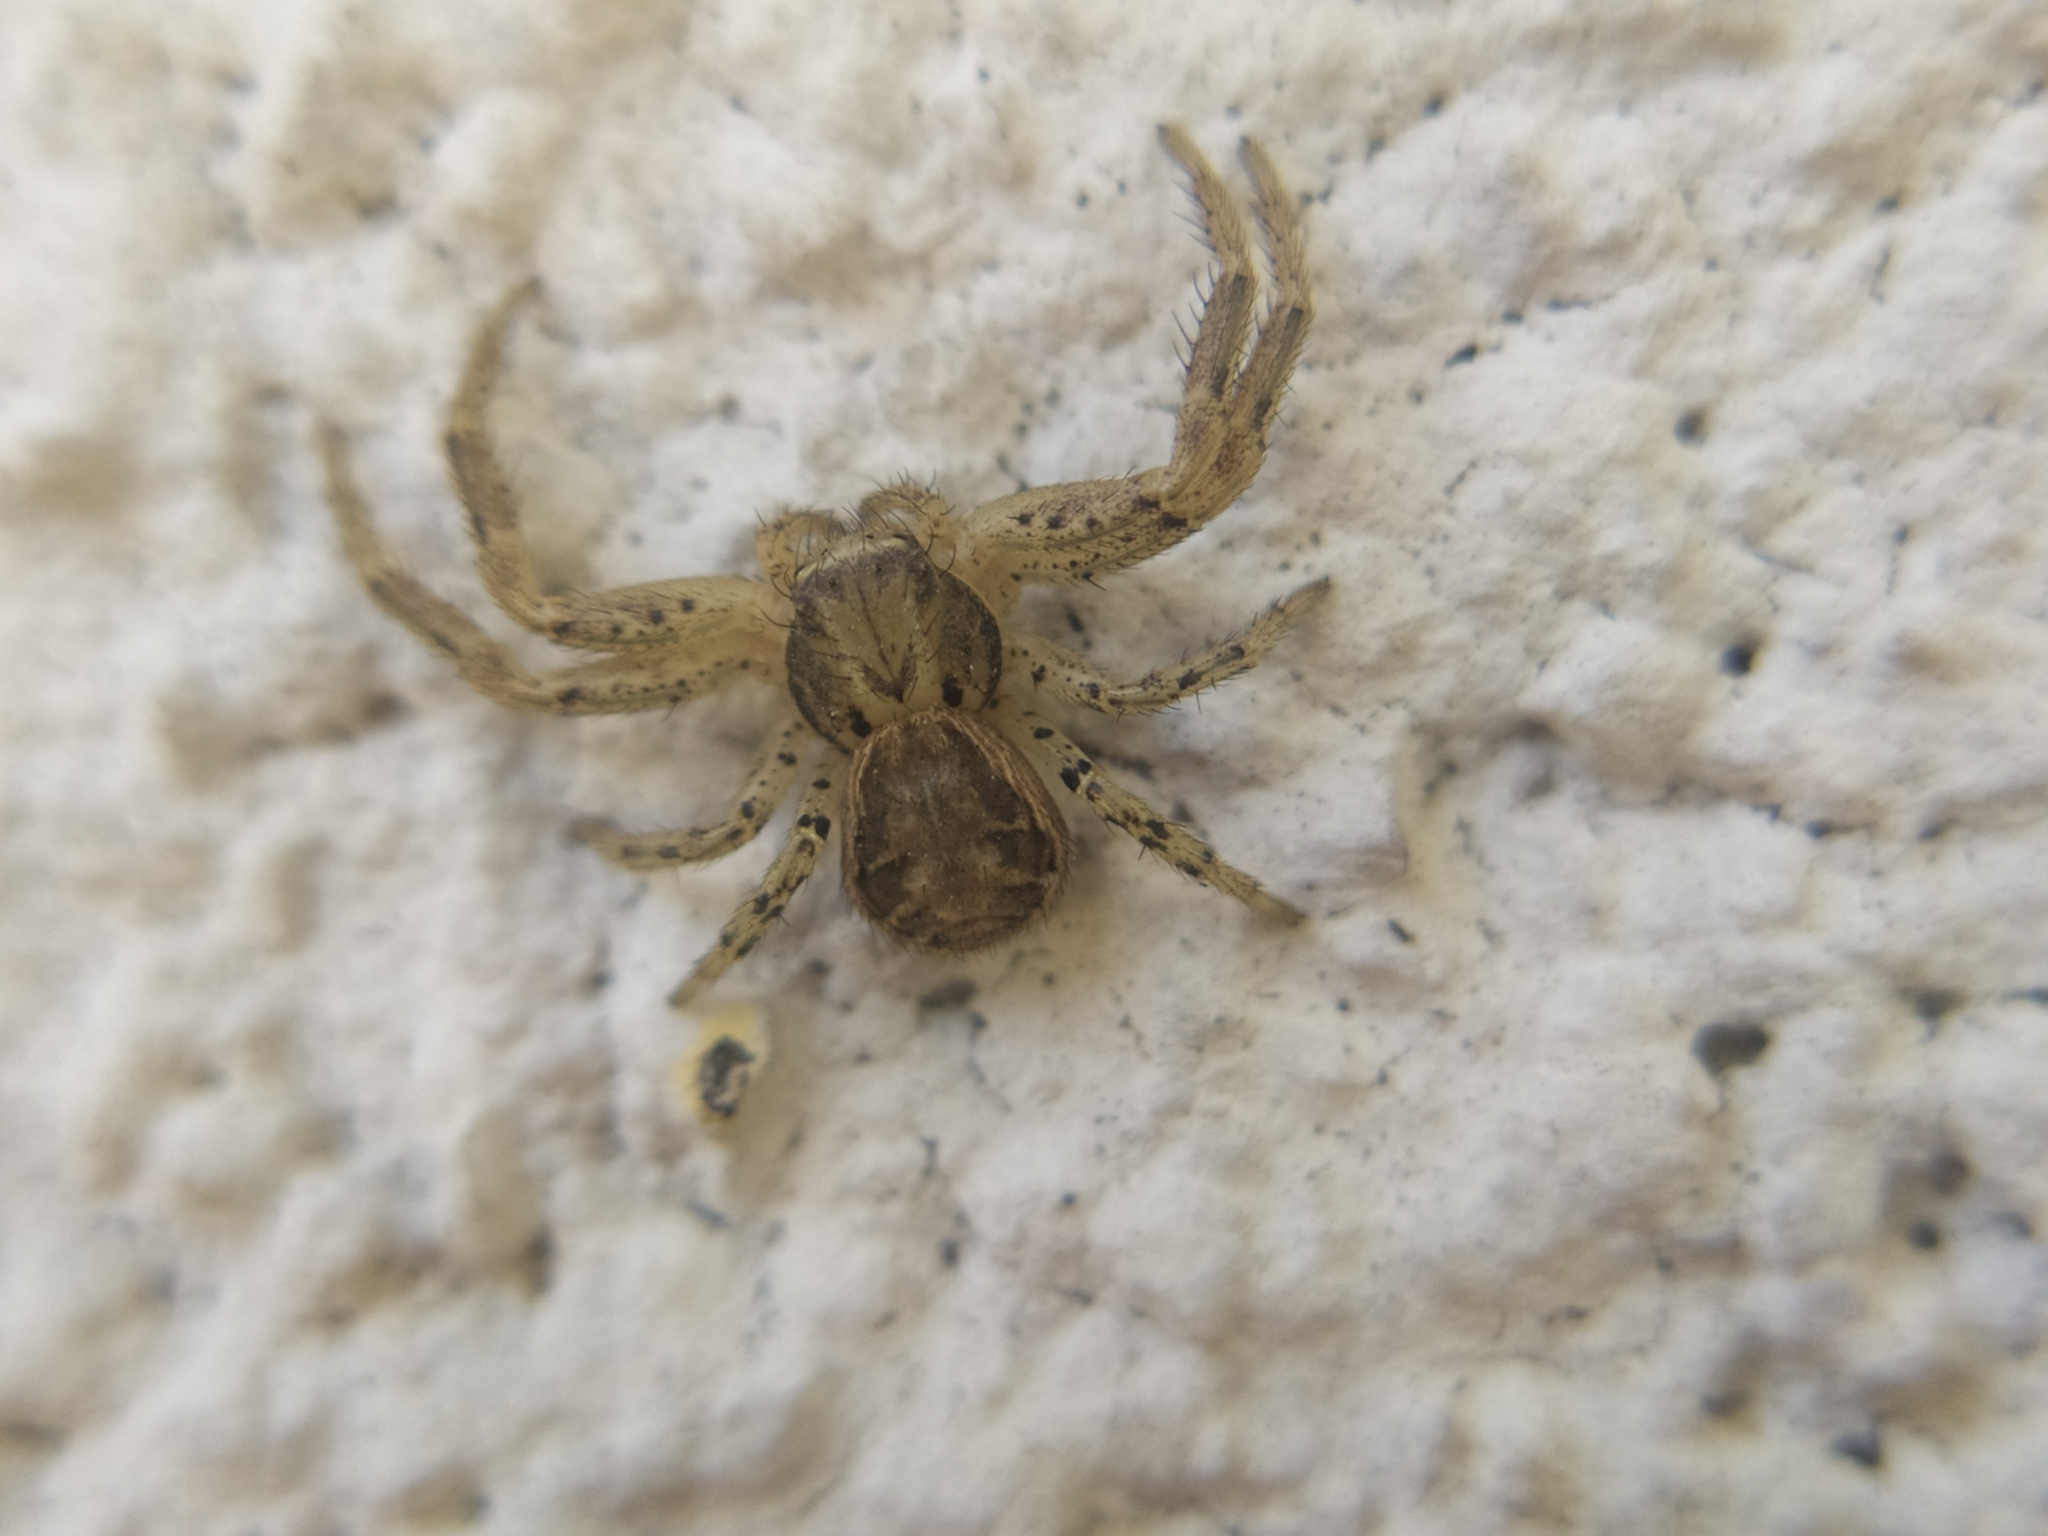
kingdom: Animalia
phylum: Arthropoda
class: Arachnida
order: Araneae
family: Thomisidae
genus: Xysticus
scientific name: Xysticus
